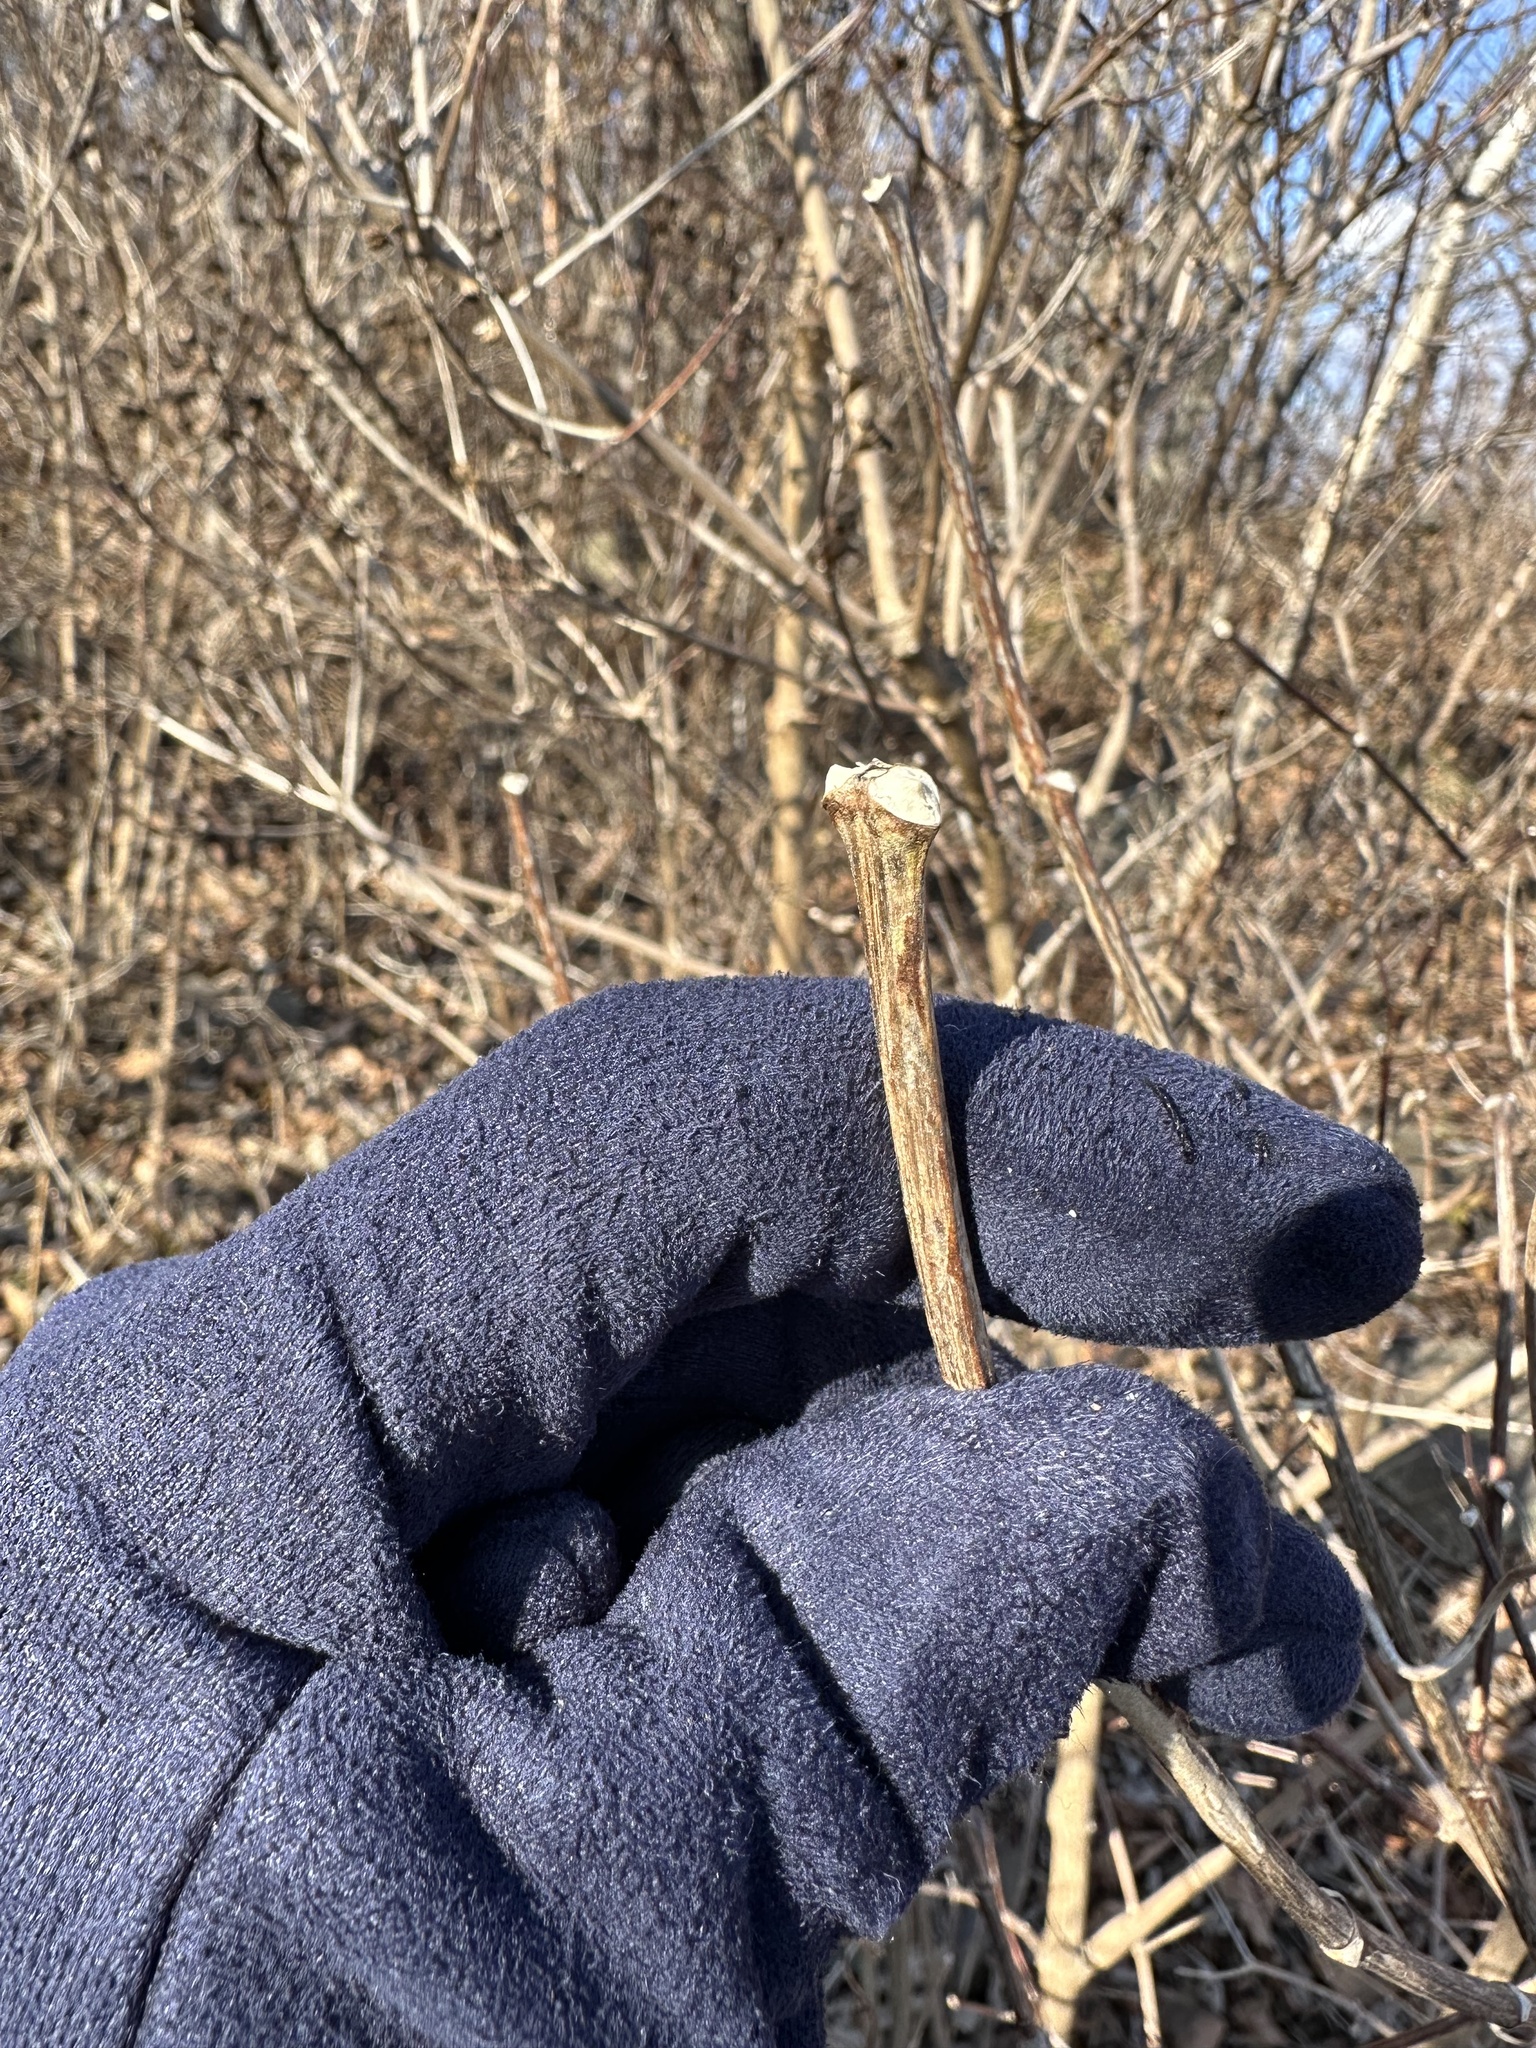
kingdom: Plantae
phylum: Tracheophyta
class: Magnoliopsida
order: Cornales
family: Hydrangeaceae
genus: Philadelphus
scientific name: Philadelphus tenuifolius
